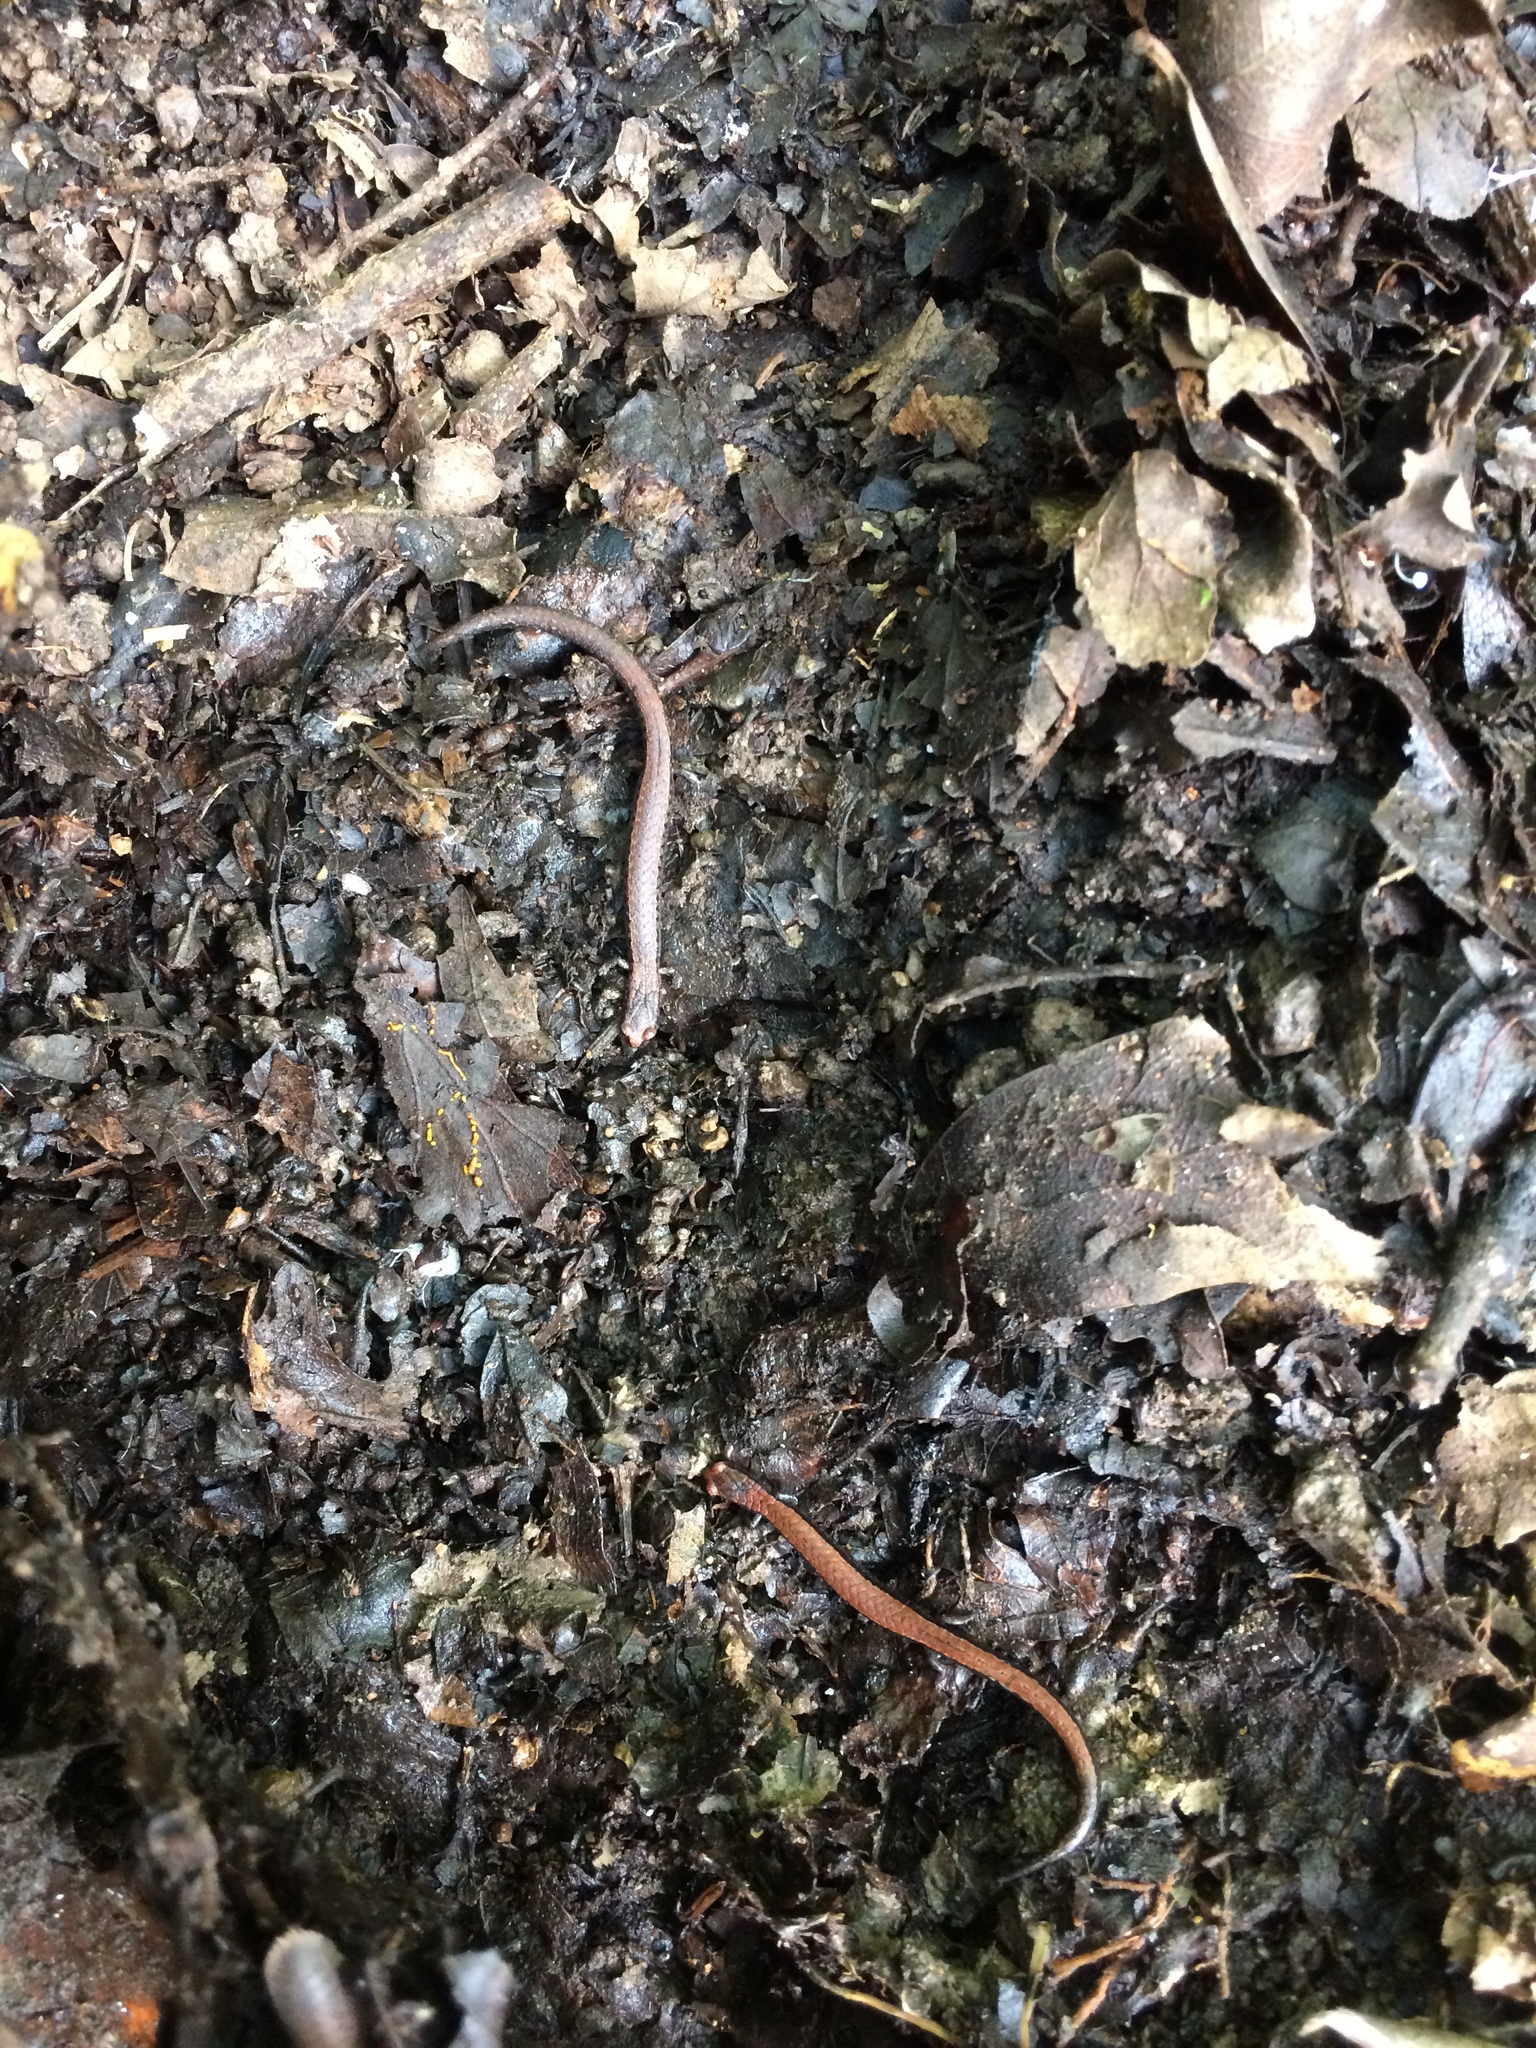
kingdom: Animalia
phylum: Chordata
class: Amphibia
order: Caudata
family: Plethodontidae
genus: Batrachoseps
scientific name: Batrachoseps attenuatus
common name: California slender salamander
